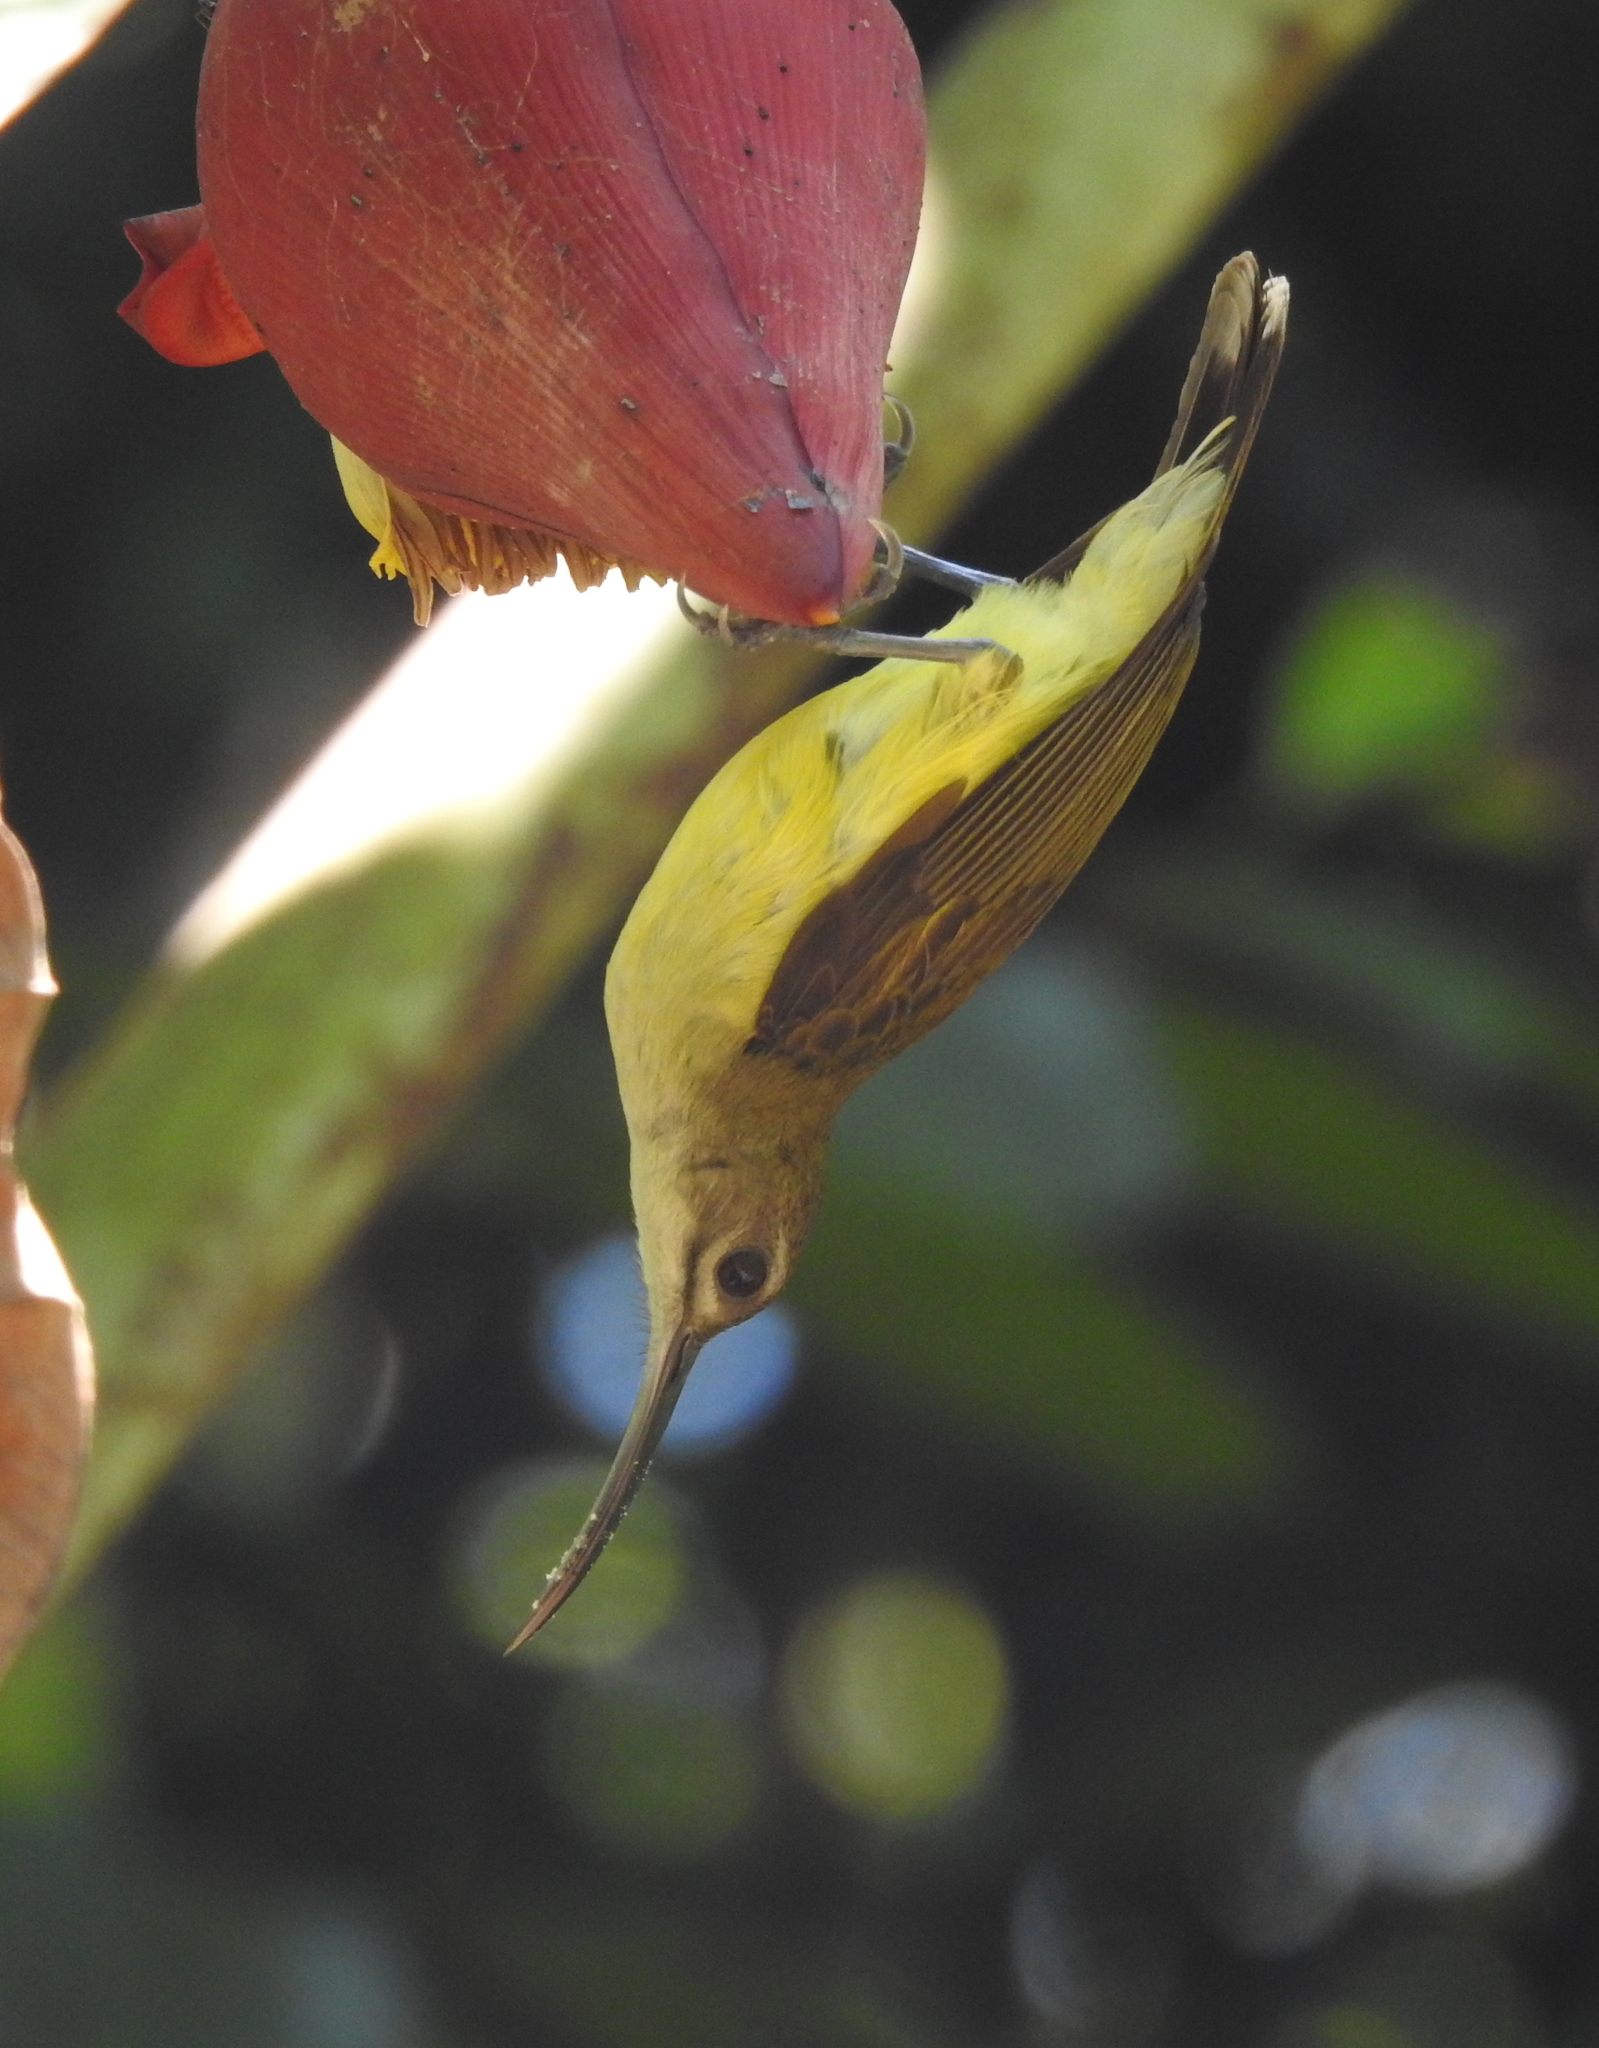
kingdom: Animalia
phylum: Chordata
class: Aves
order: Passeriformes
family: Nectariniidae
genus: Arachnothera
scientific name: Arachnothera longirostra
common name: Little spiderhunter
